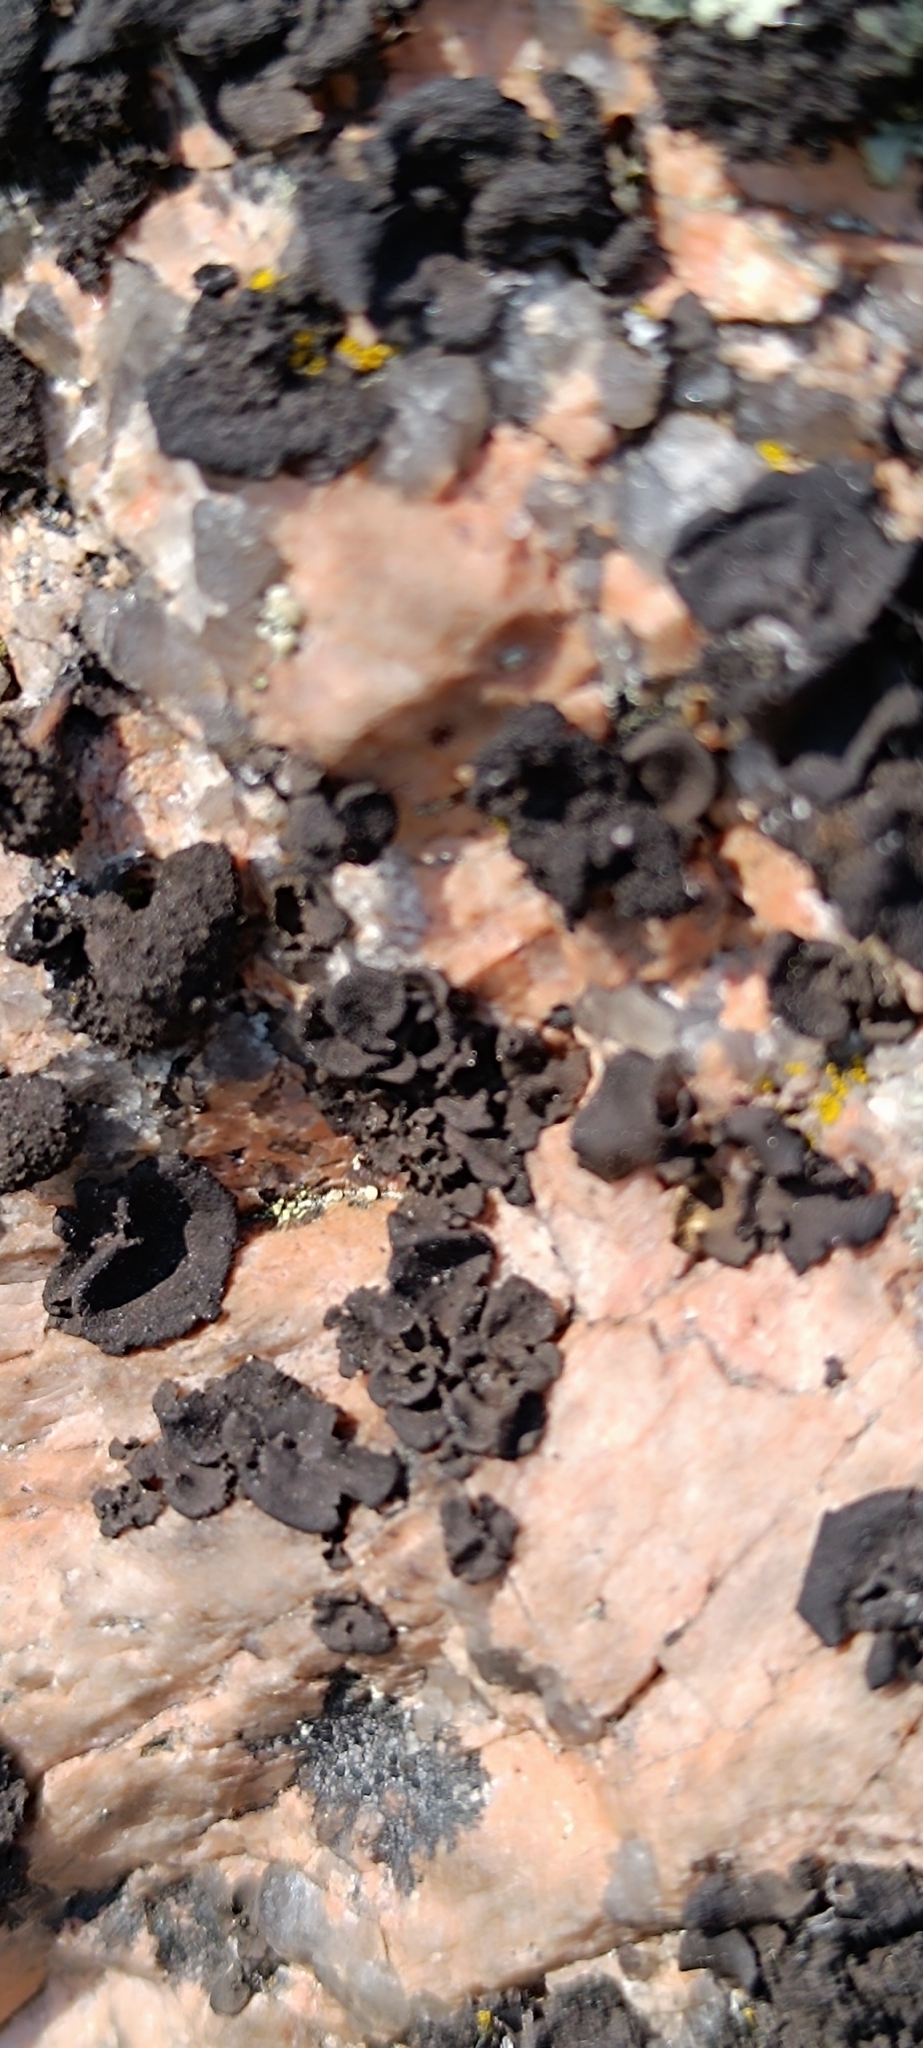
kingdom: Fungi
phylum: Ascomycota
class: Lecanoromycetes
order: Umbilicariales
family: Umbilicariaceae
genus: Umbilicaria
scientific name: Umbilicaria deusta
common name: Peppered rock tripe
